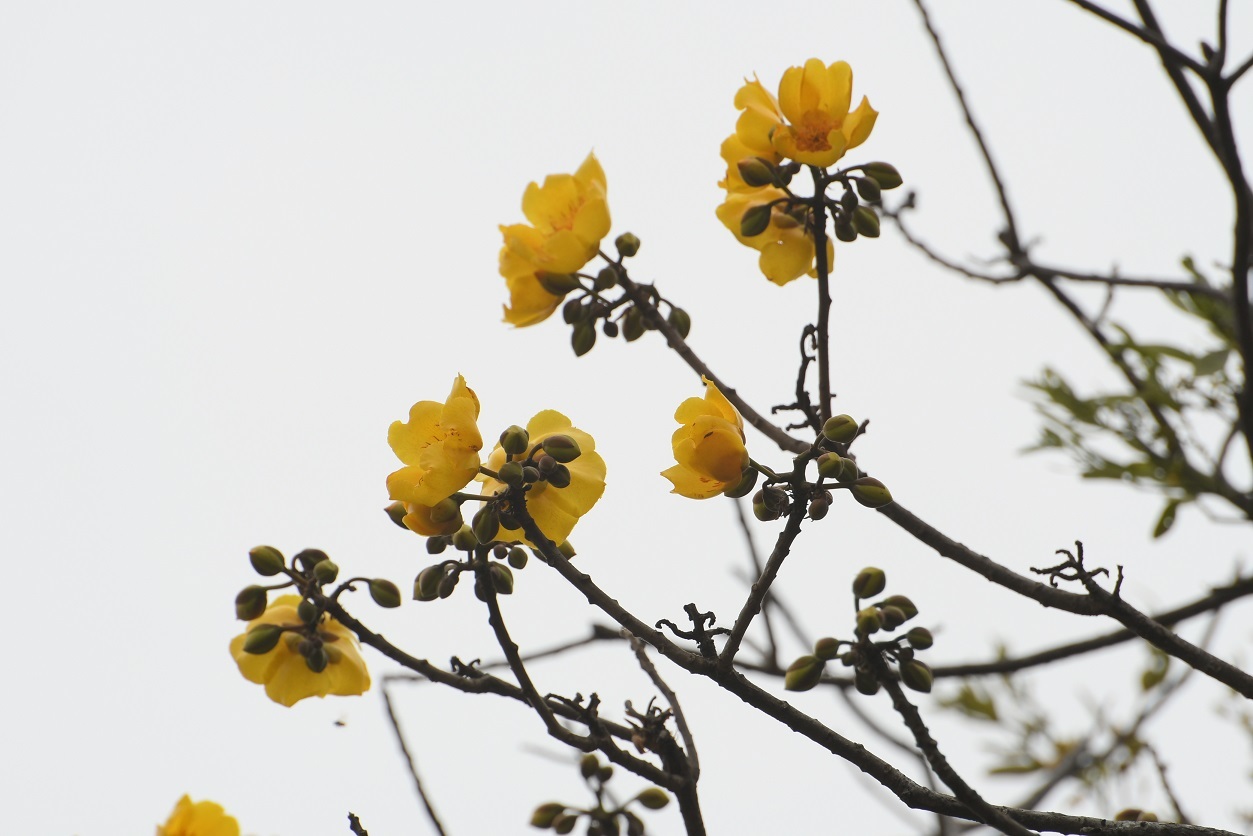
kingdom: Plantae
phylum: Tracheophyta
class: Magnoliopsida
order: Malvales
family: Cochlospermaceae
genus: Cochlospermum
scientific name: Cochlospermum vitifolium
